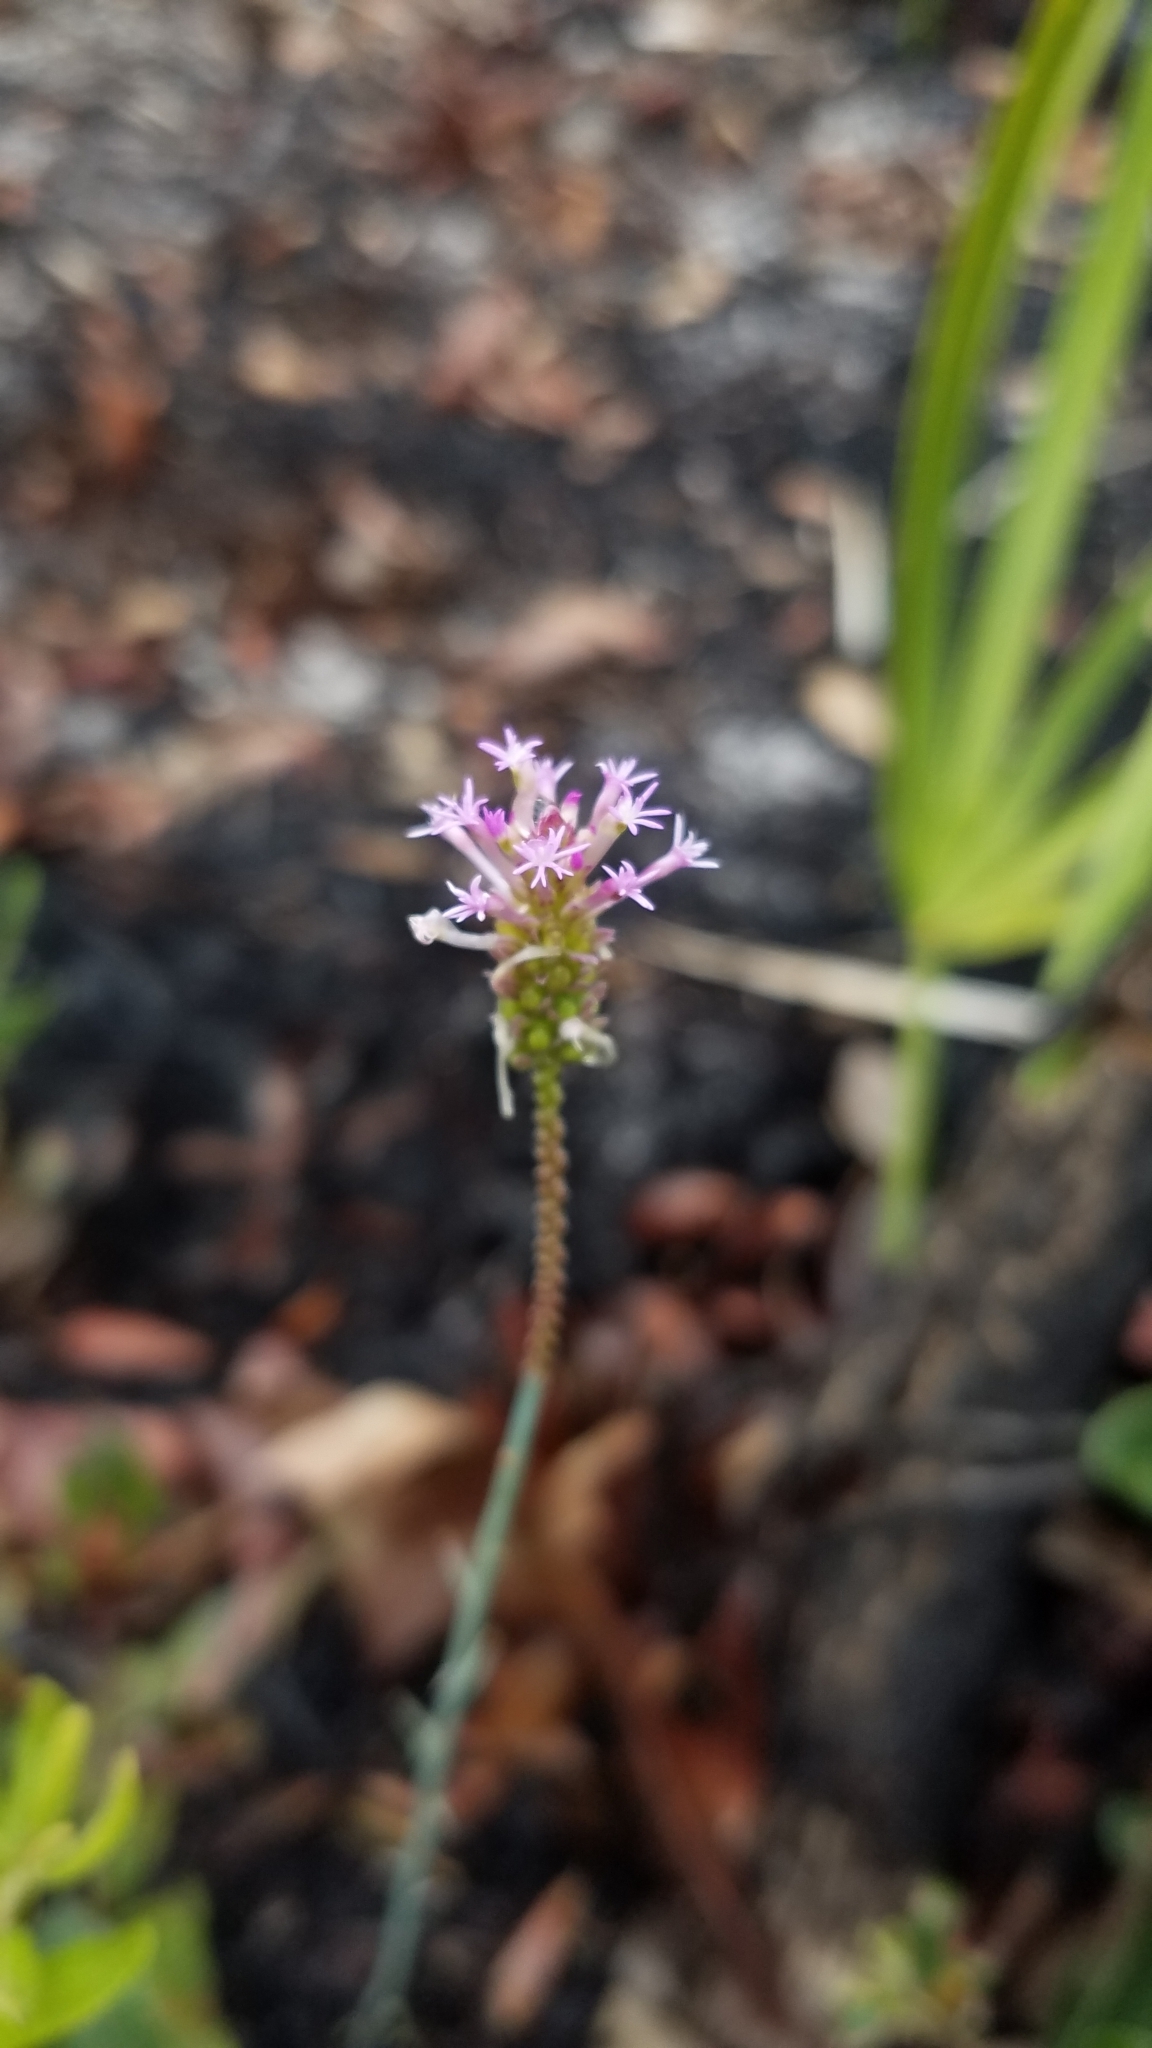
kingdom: Plantae
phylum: Tracheophyta
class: Magnoliopsida
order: Fabales
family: Polygalaceae
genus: Polygala
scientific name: Polygala incarnata
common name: Pink milkwort
